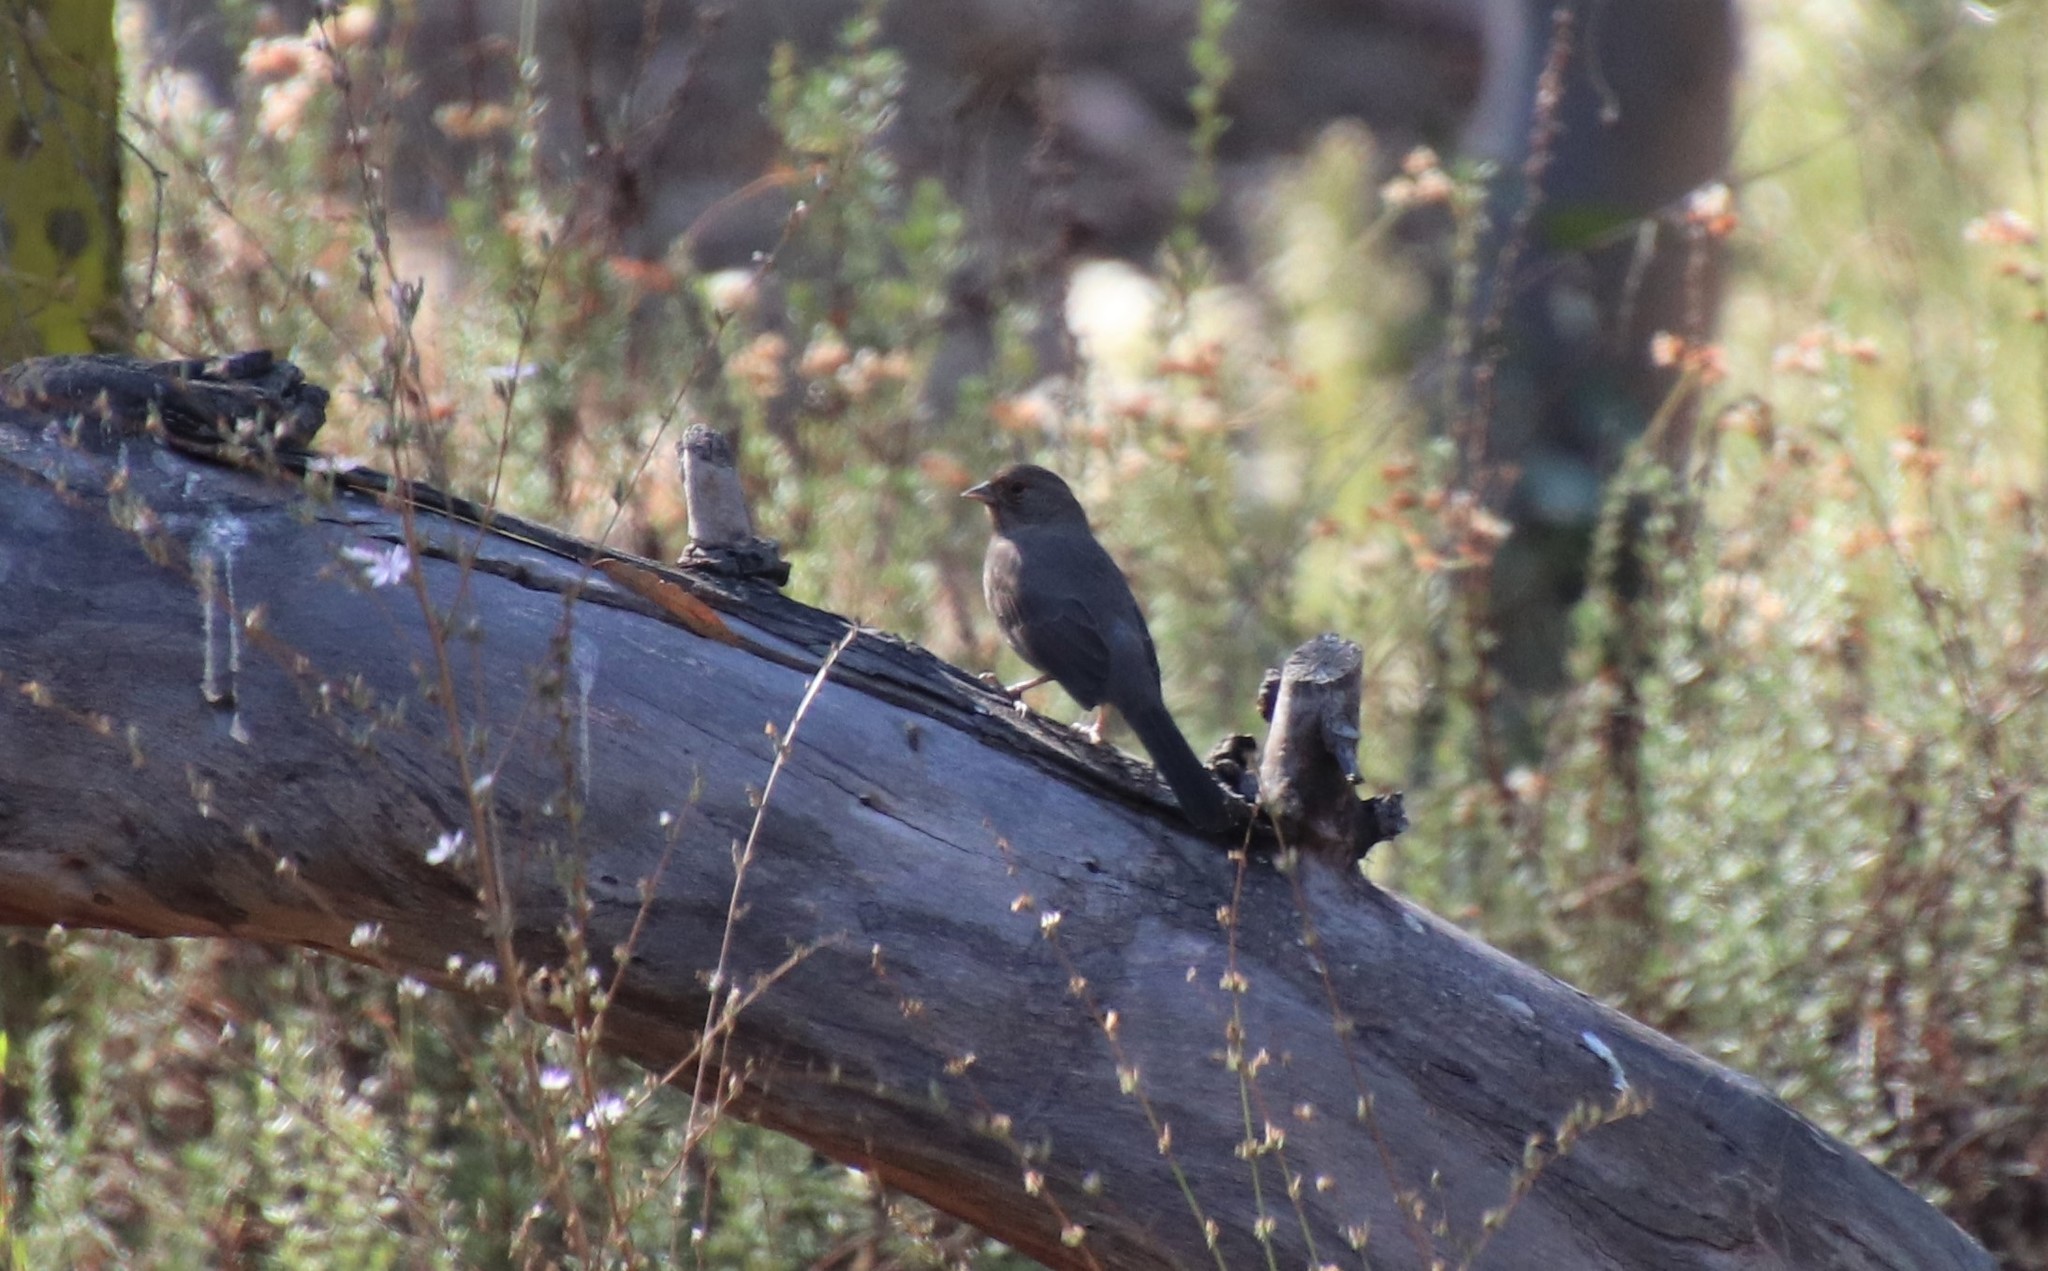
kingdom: Animalia
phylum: Chordata
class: Aves
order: Passeriformes
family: Passerellidae
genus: Melozone
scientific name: Melozone crissalis
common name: California towhee
